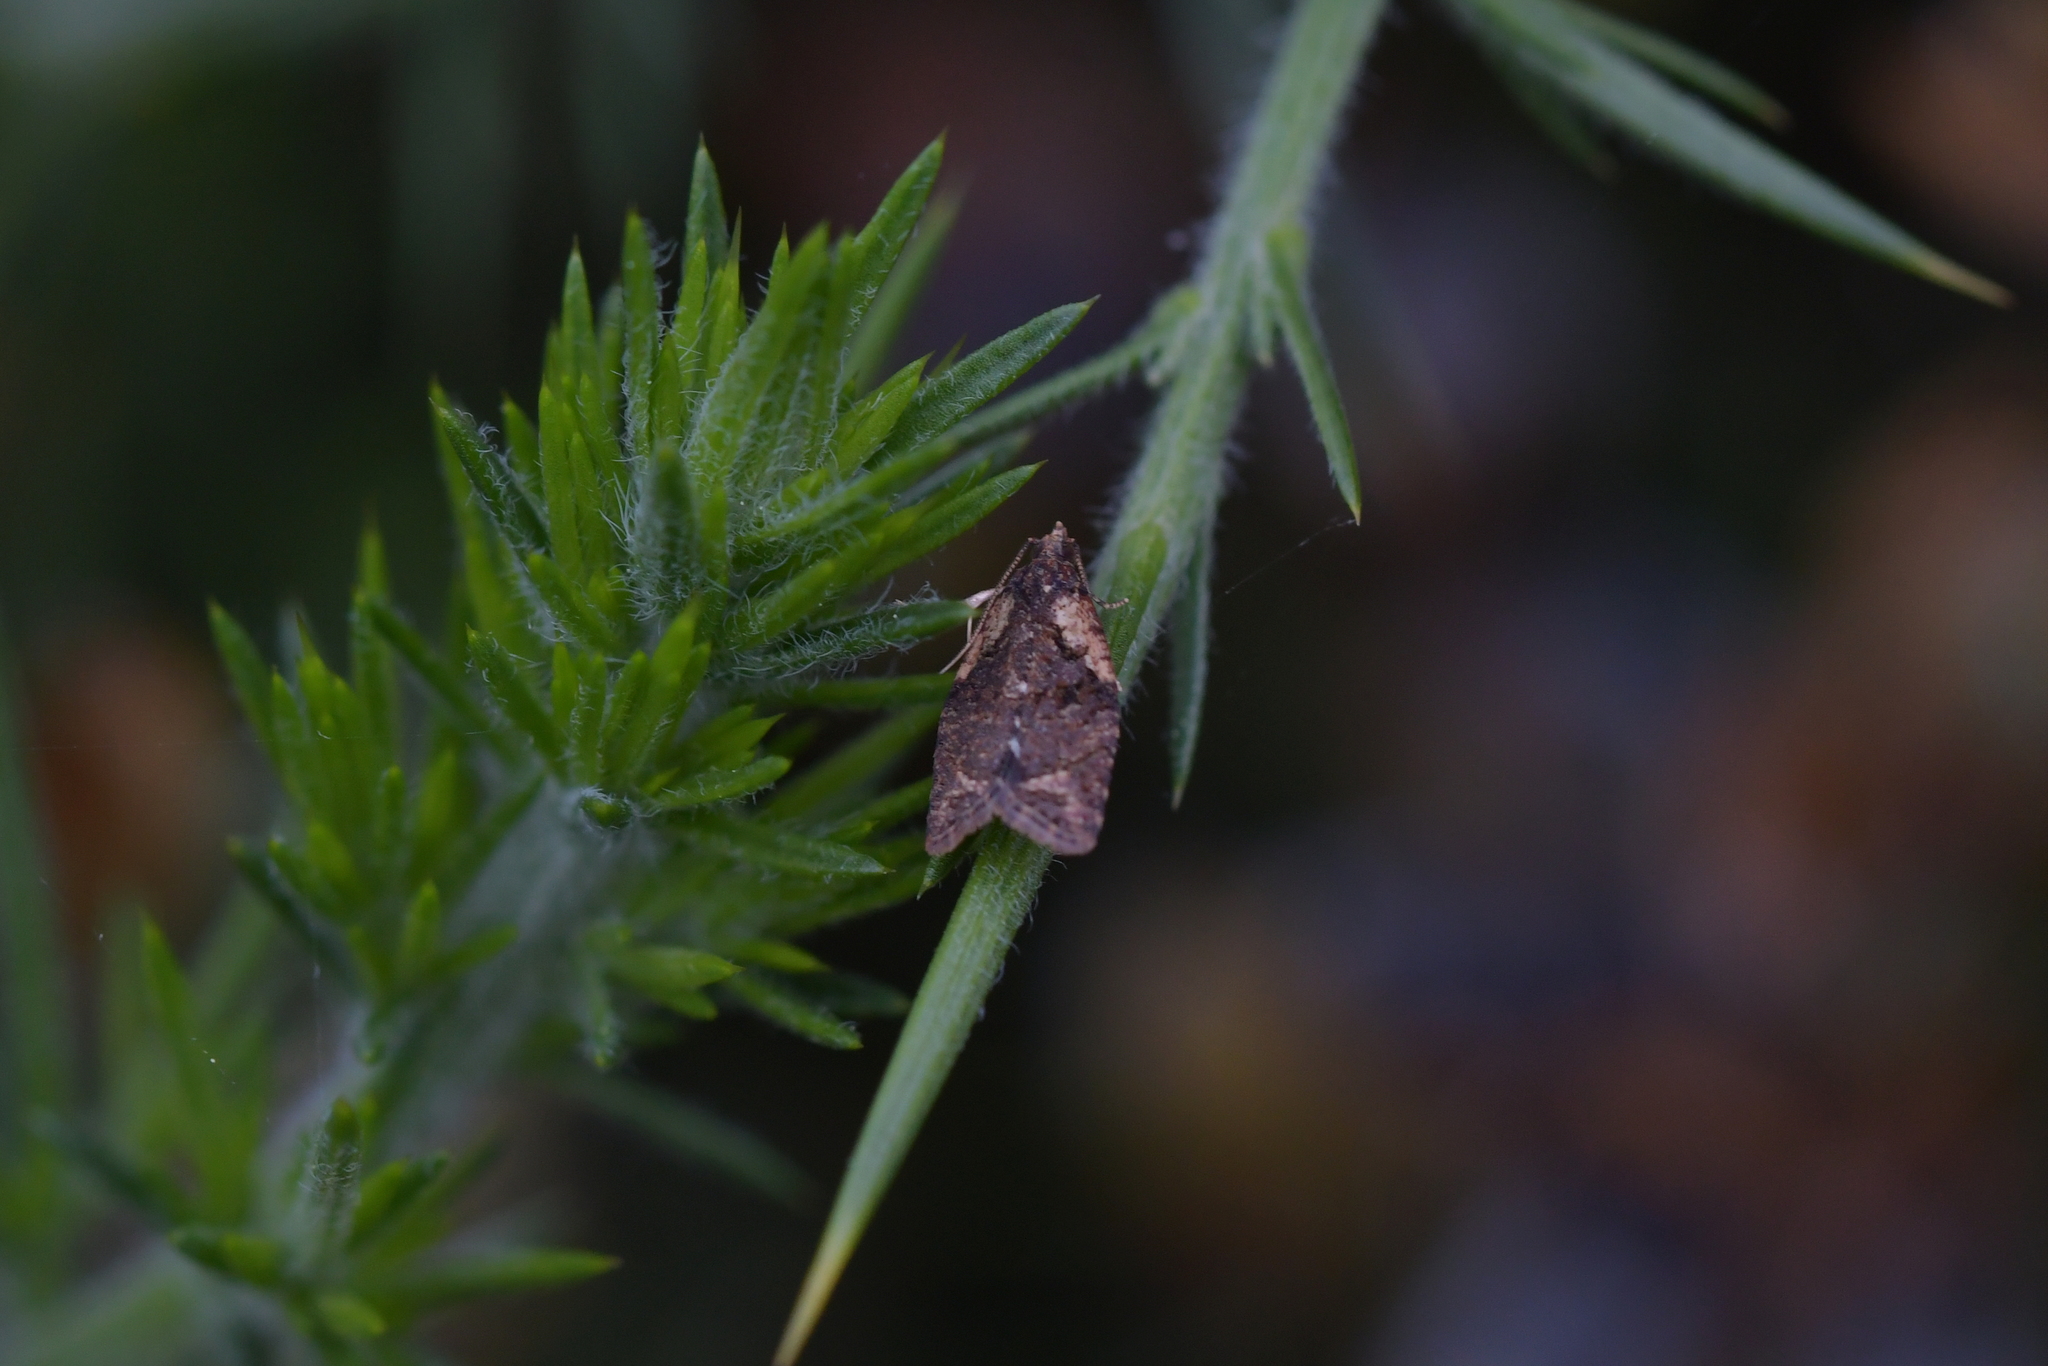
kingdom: Animalia
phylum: Arthropoda
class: Insecta
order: Lepidoptera
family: Tortricidae
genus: Capua
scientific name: Capua intractana
